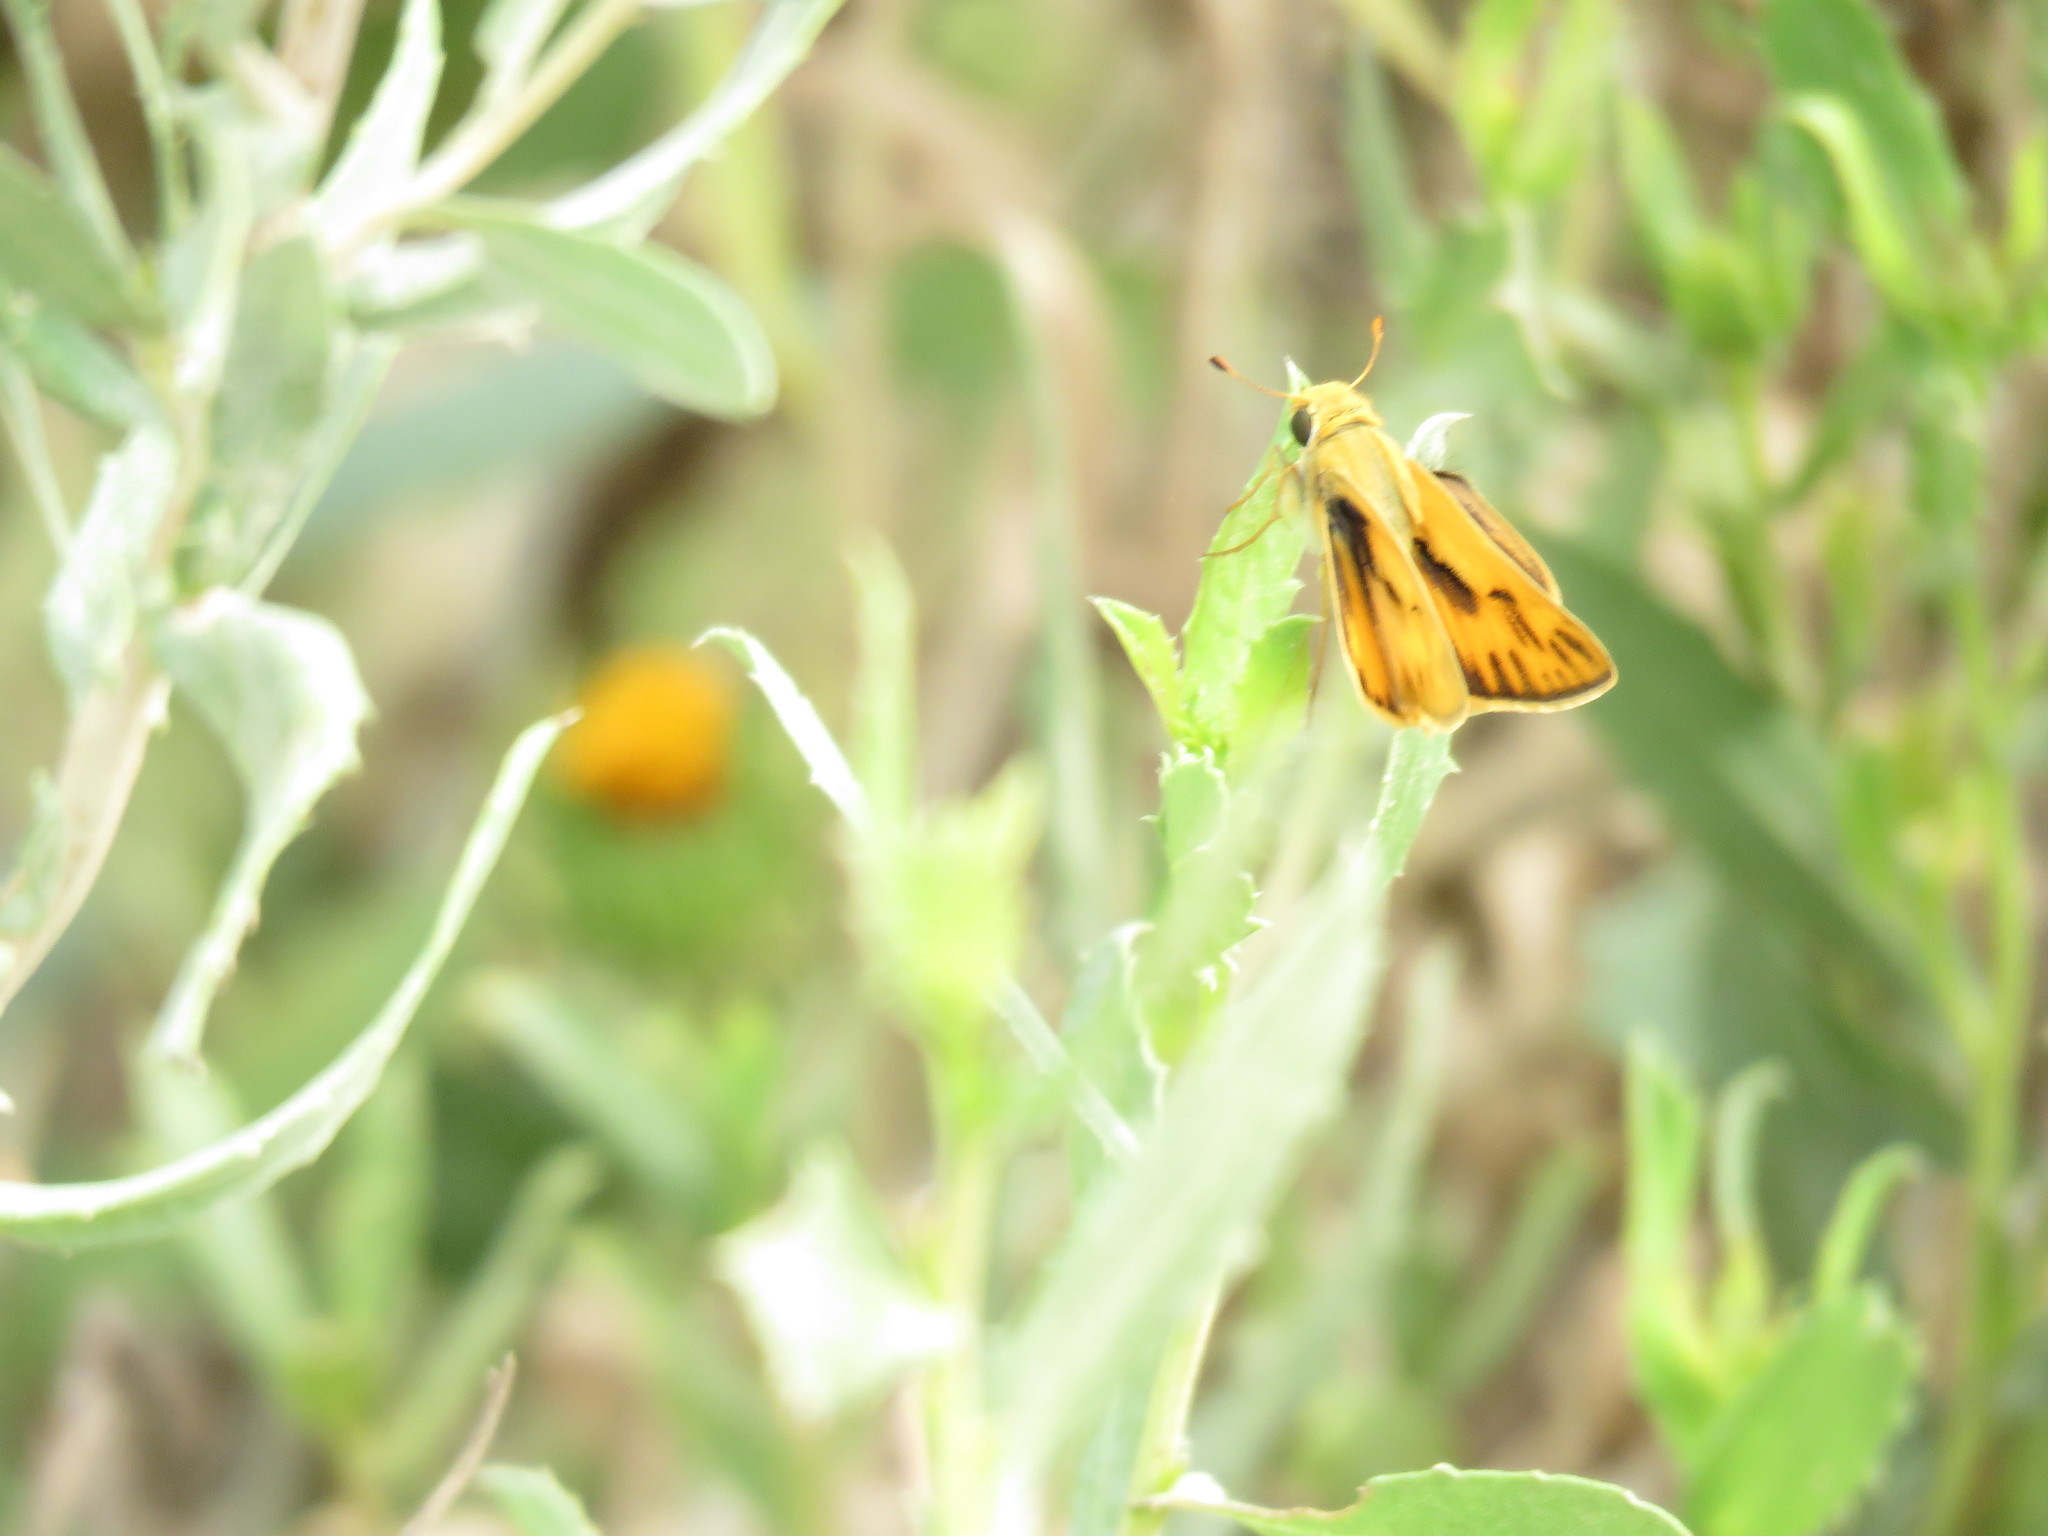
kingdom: Animalia
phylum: Arthropoda
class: Insecta
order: Lepidoptera
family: Hesperiidae
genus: Hylephila
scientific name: Hylephila phyleus
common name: Fiery skipper
